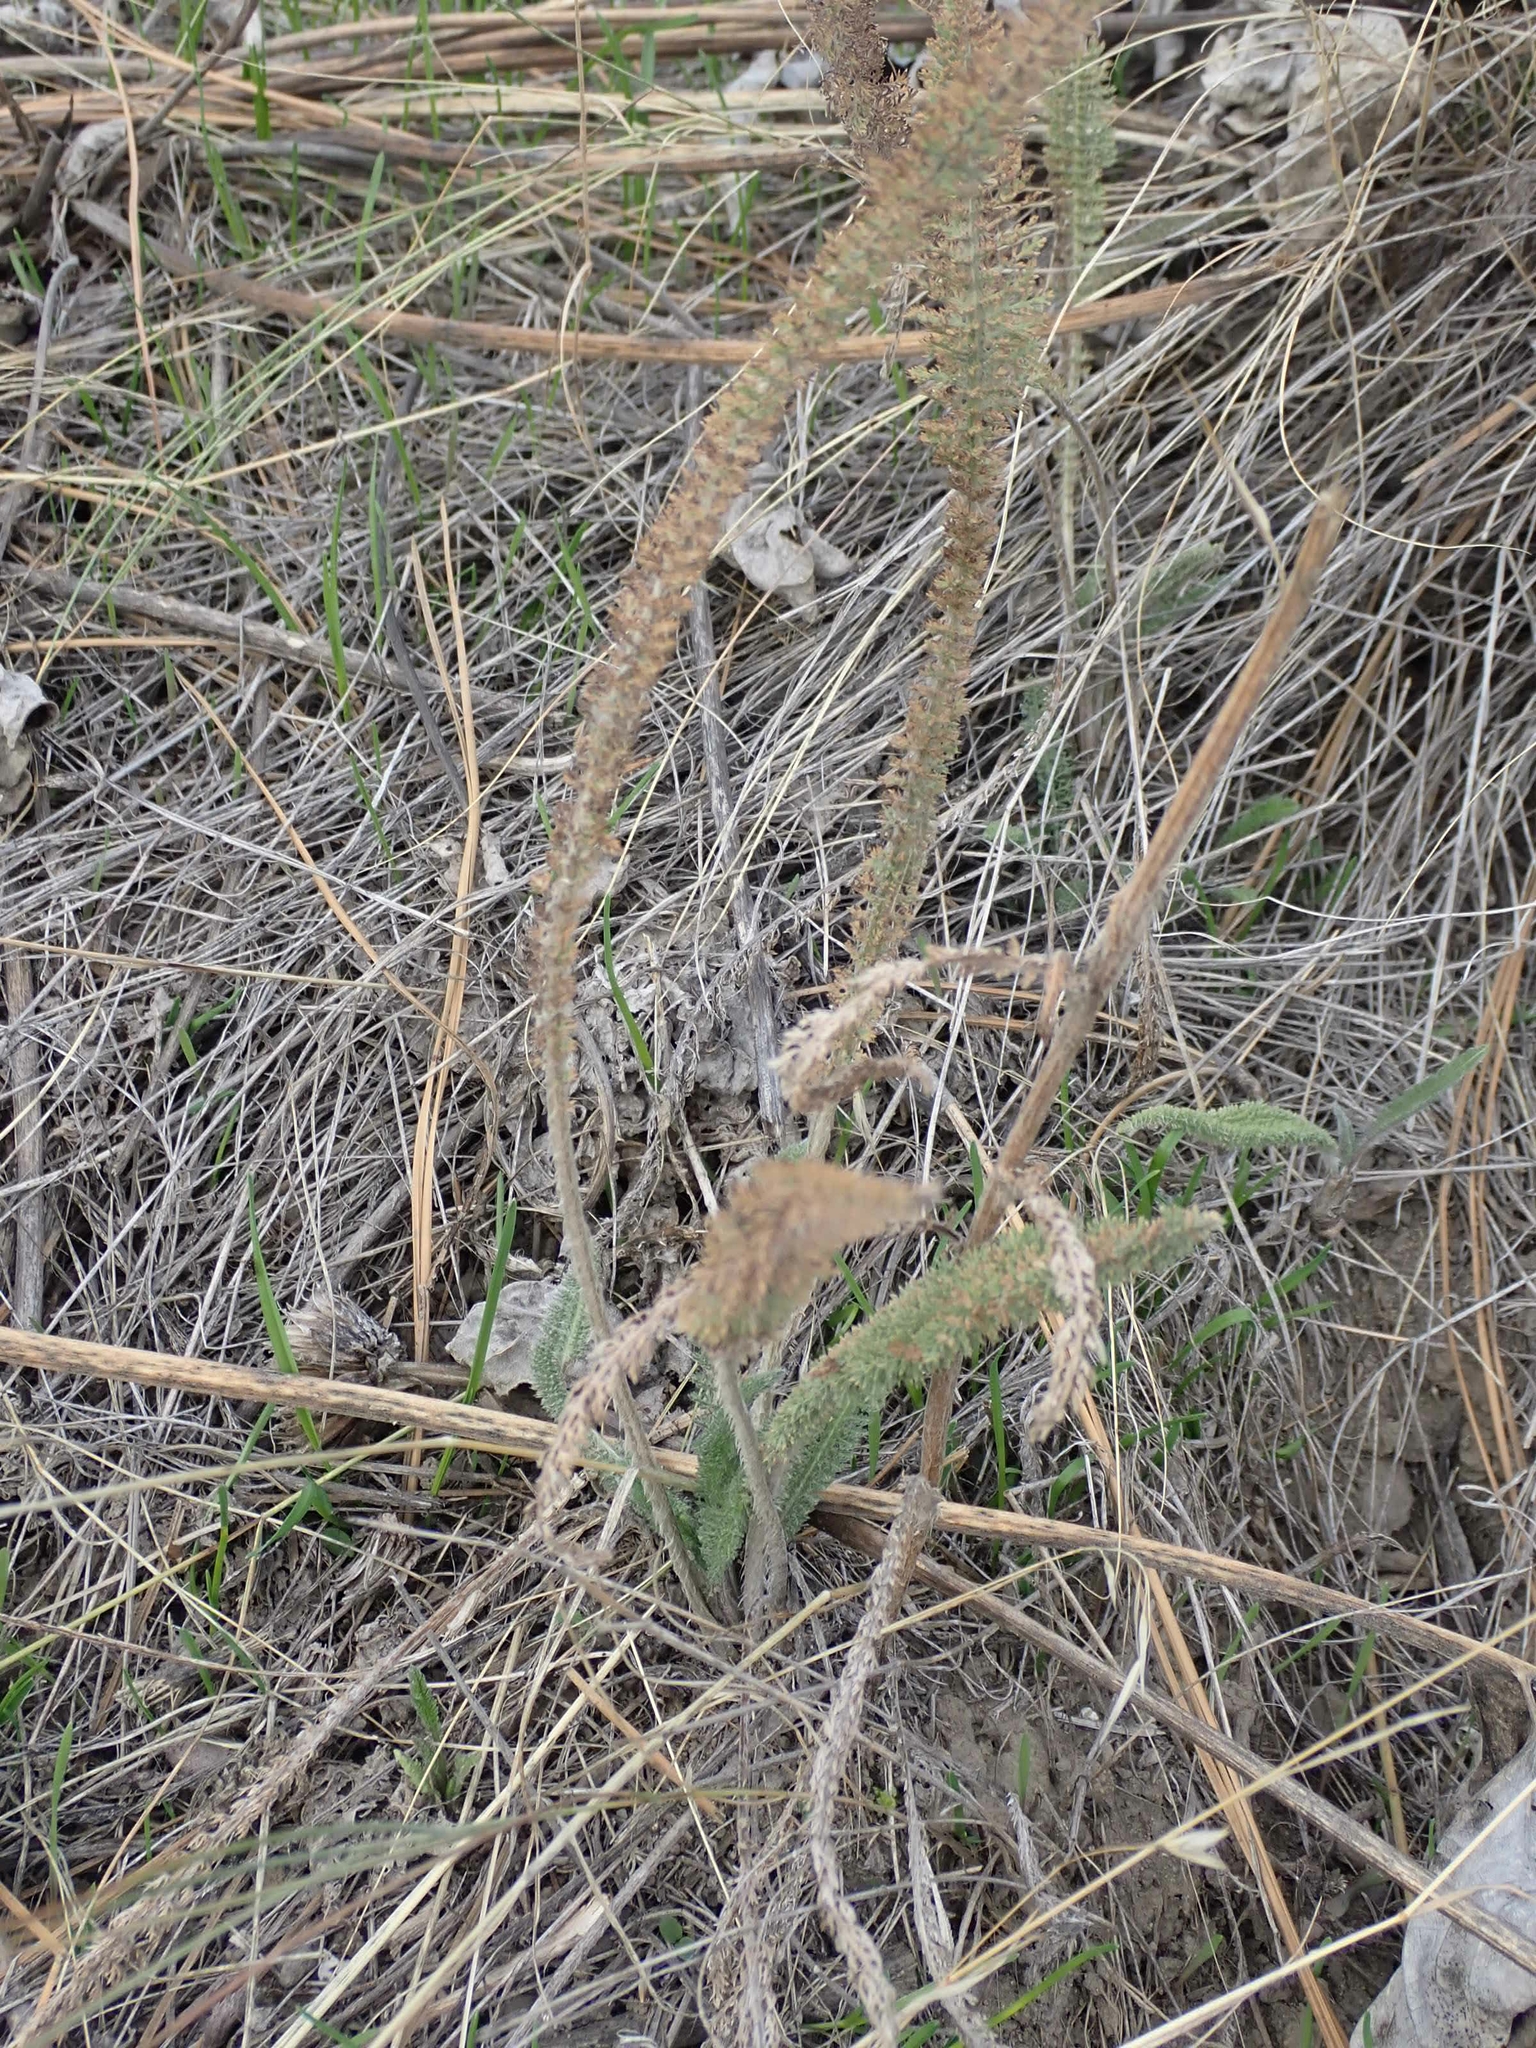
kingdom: Plantae
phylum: Tracheophyta
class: Magnoliopsida
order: Asterales
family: Asteraceae
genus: Achillea
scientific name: Achillea millefolium
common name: Yarrow
